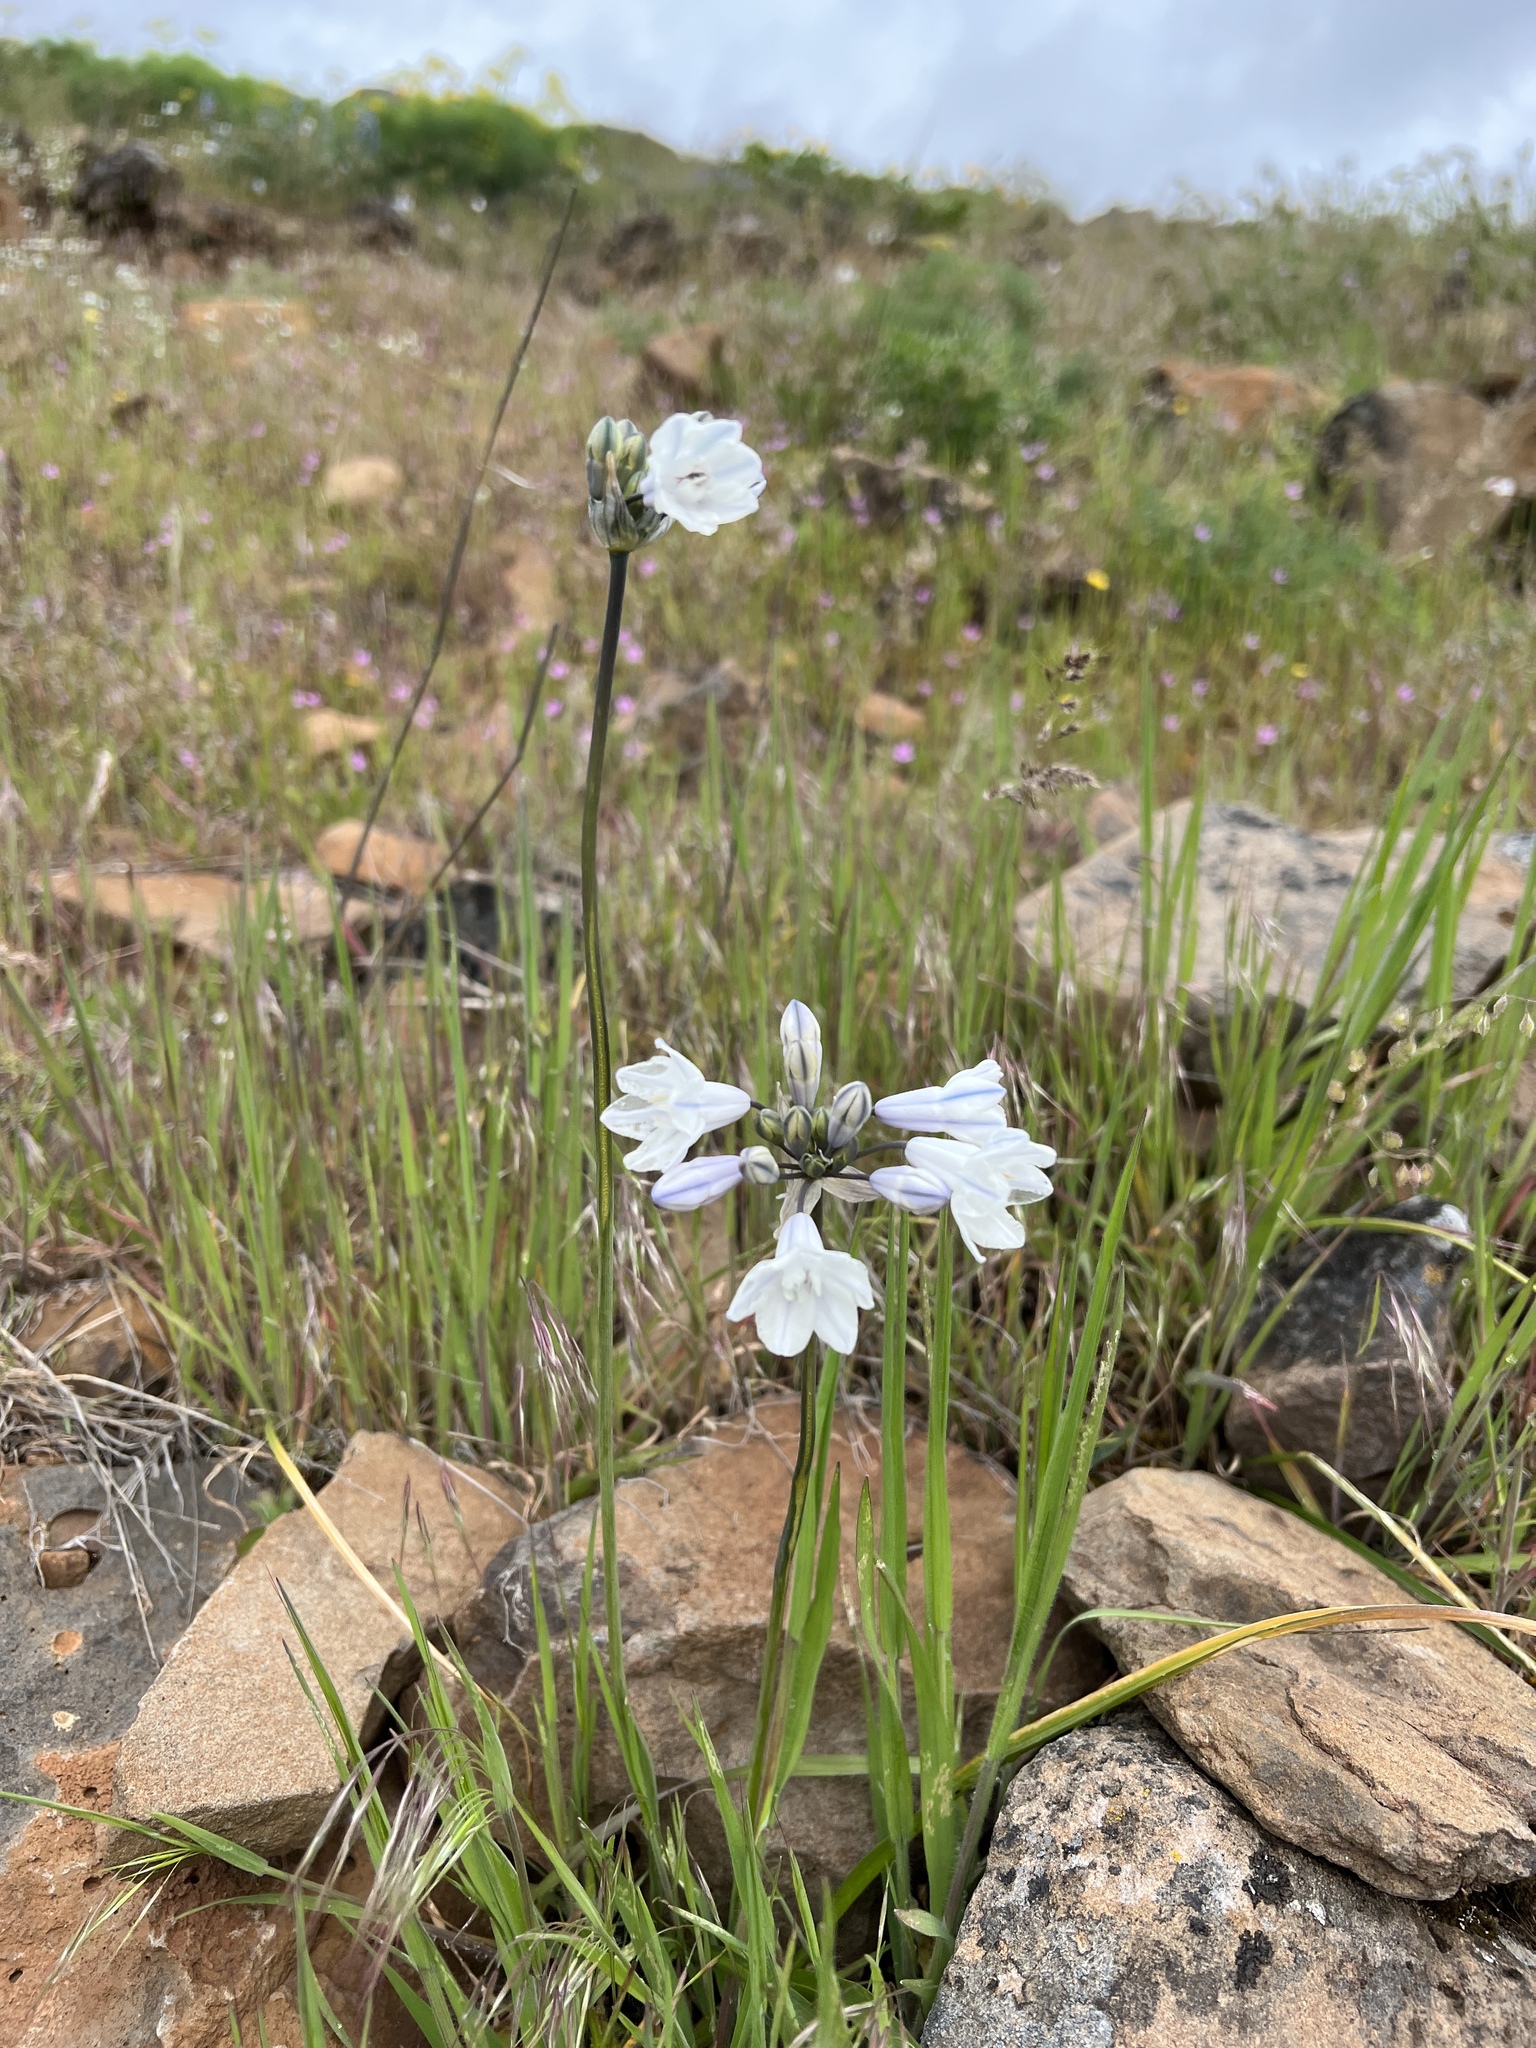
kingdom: Plantae
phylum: Tracheophyta
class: Liliopsida
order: Asparagales
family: Asparagaceae
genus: Triteleia
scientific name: Triteleia grandiflora
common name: Wild hyacinth
